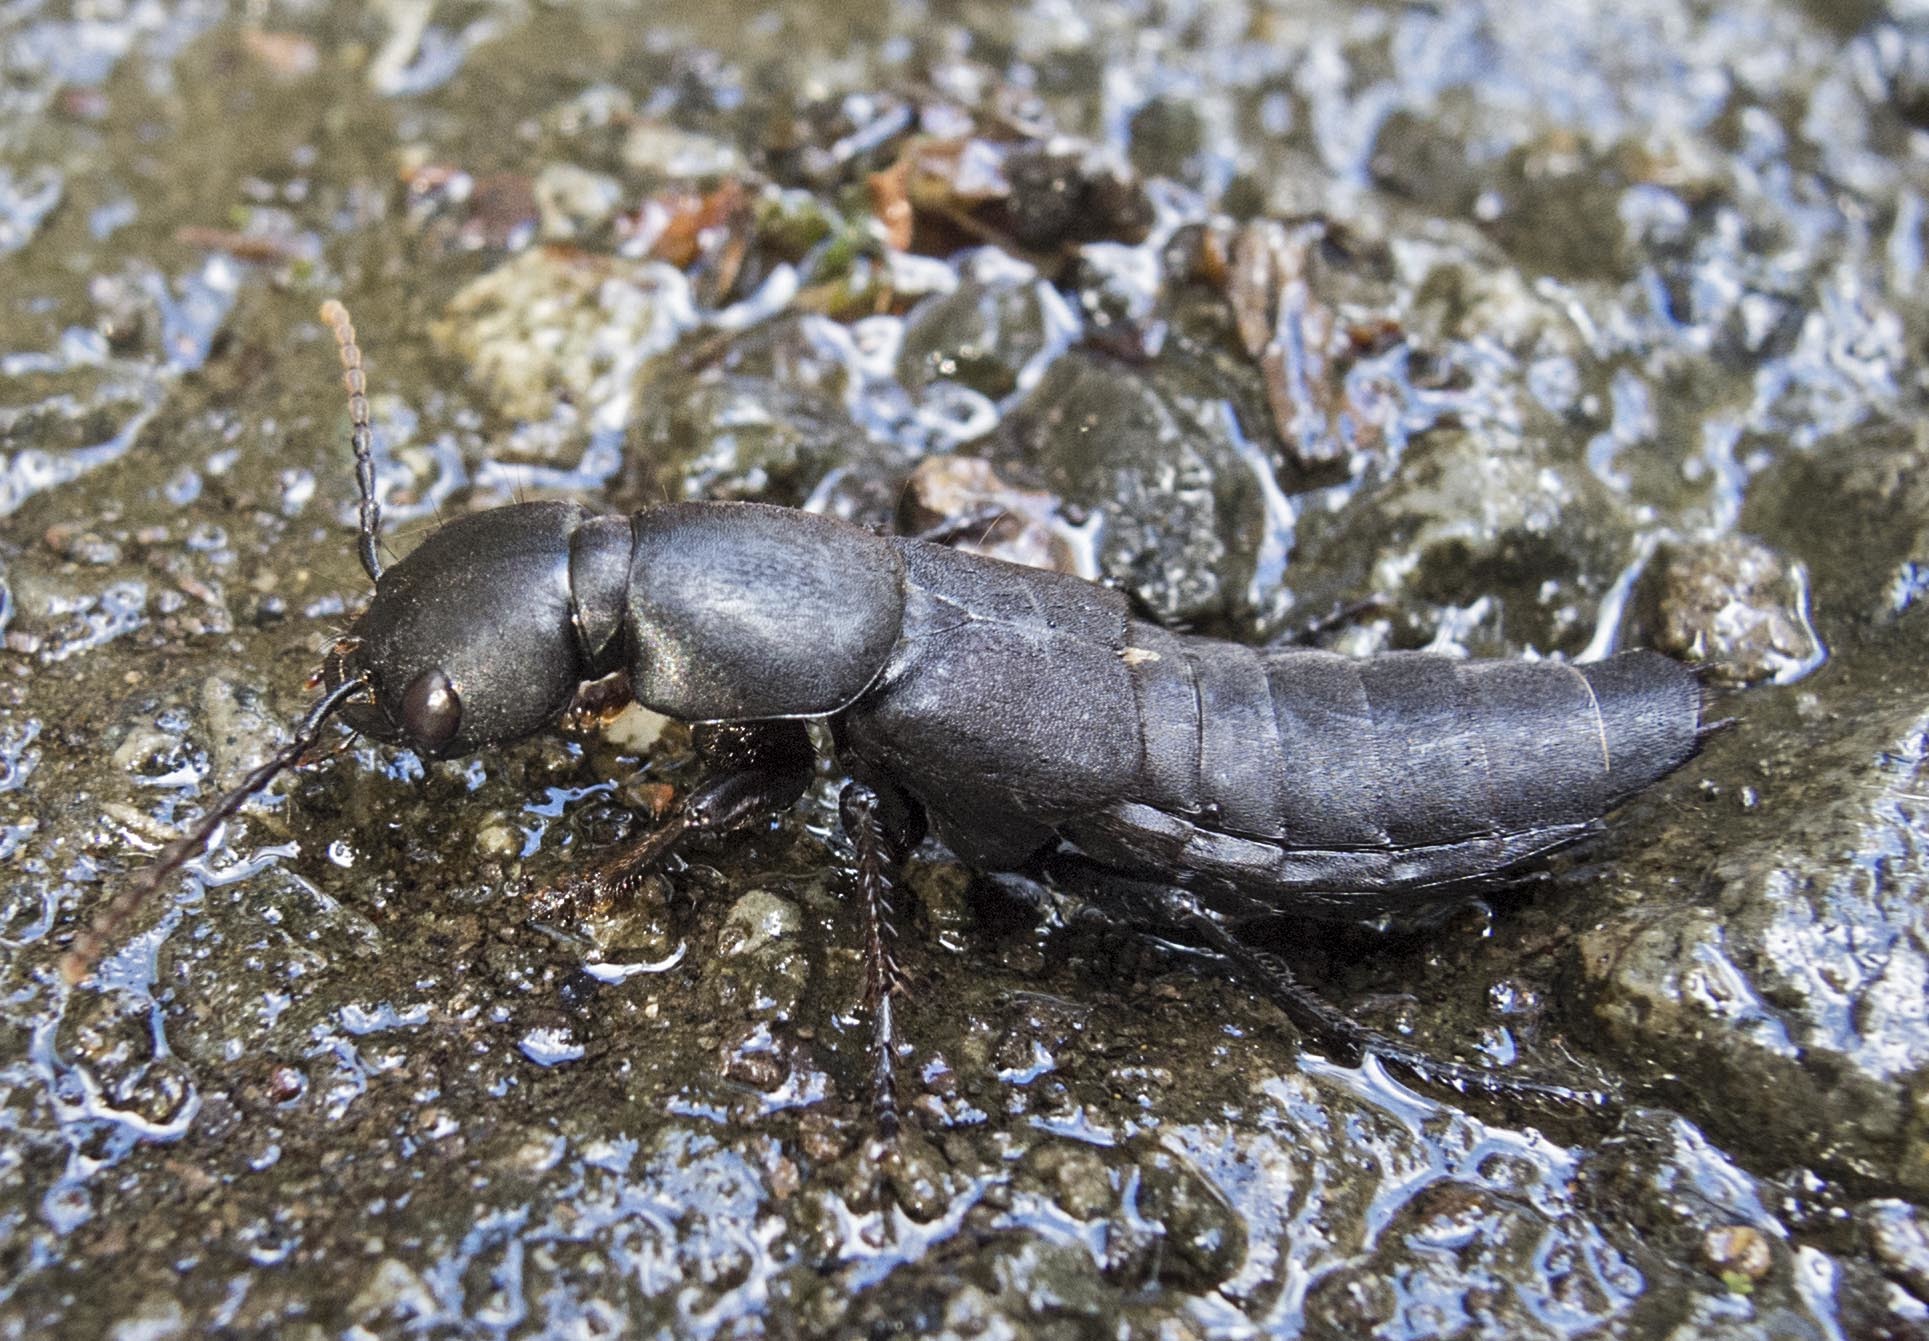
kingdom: Animalia
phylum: Arthropoda
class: Insecta
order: Coleoptera
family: Staphylinidae
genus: Ocypus
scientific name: Ocypus olens
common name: Devil's coach-horse
